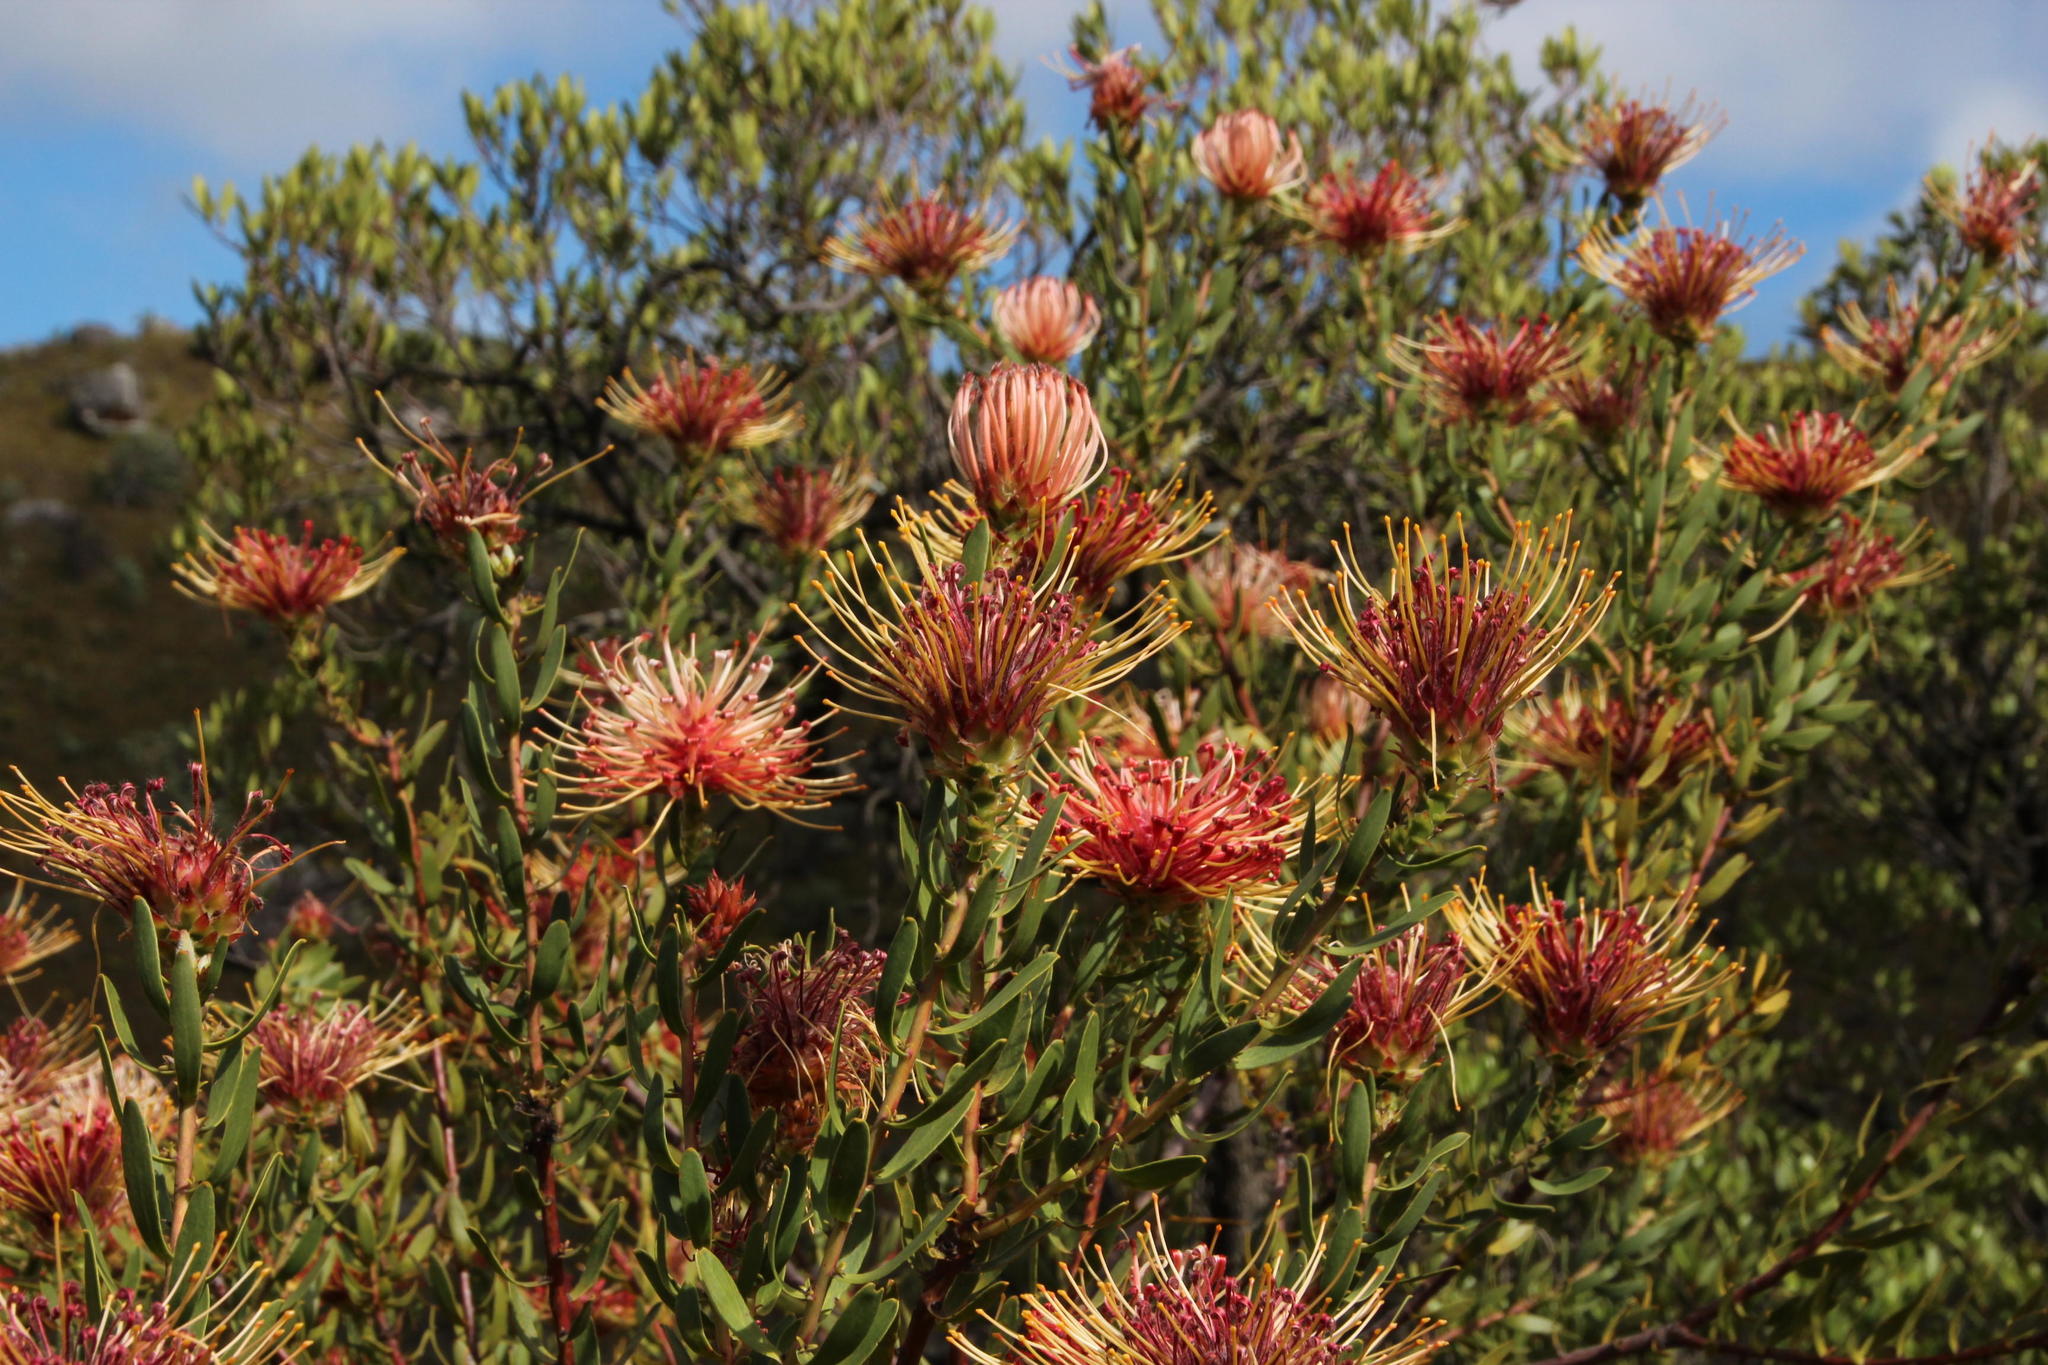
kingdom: Plantae
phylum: Tracheophyta
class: Magnoliopsida
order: Proteales
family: Proteaceae
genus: Leucospermum
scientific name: Leucospermum tottum
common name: Ribbon pincushion
